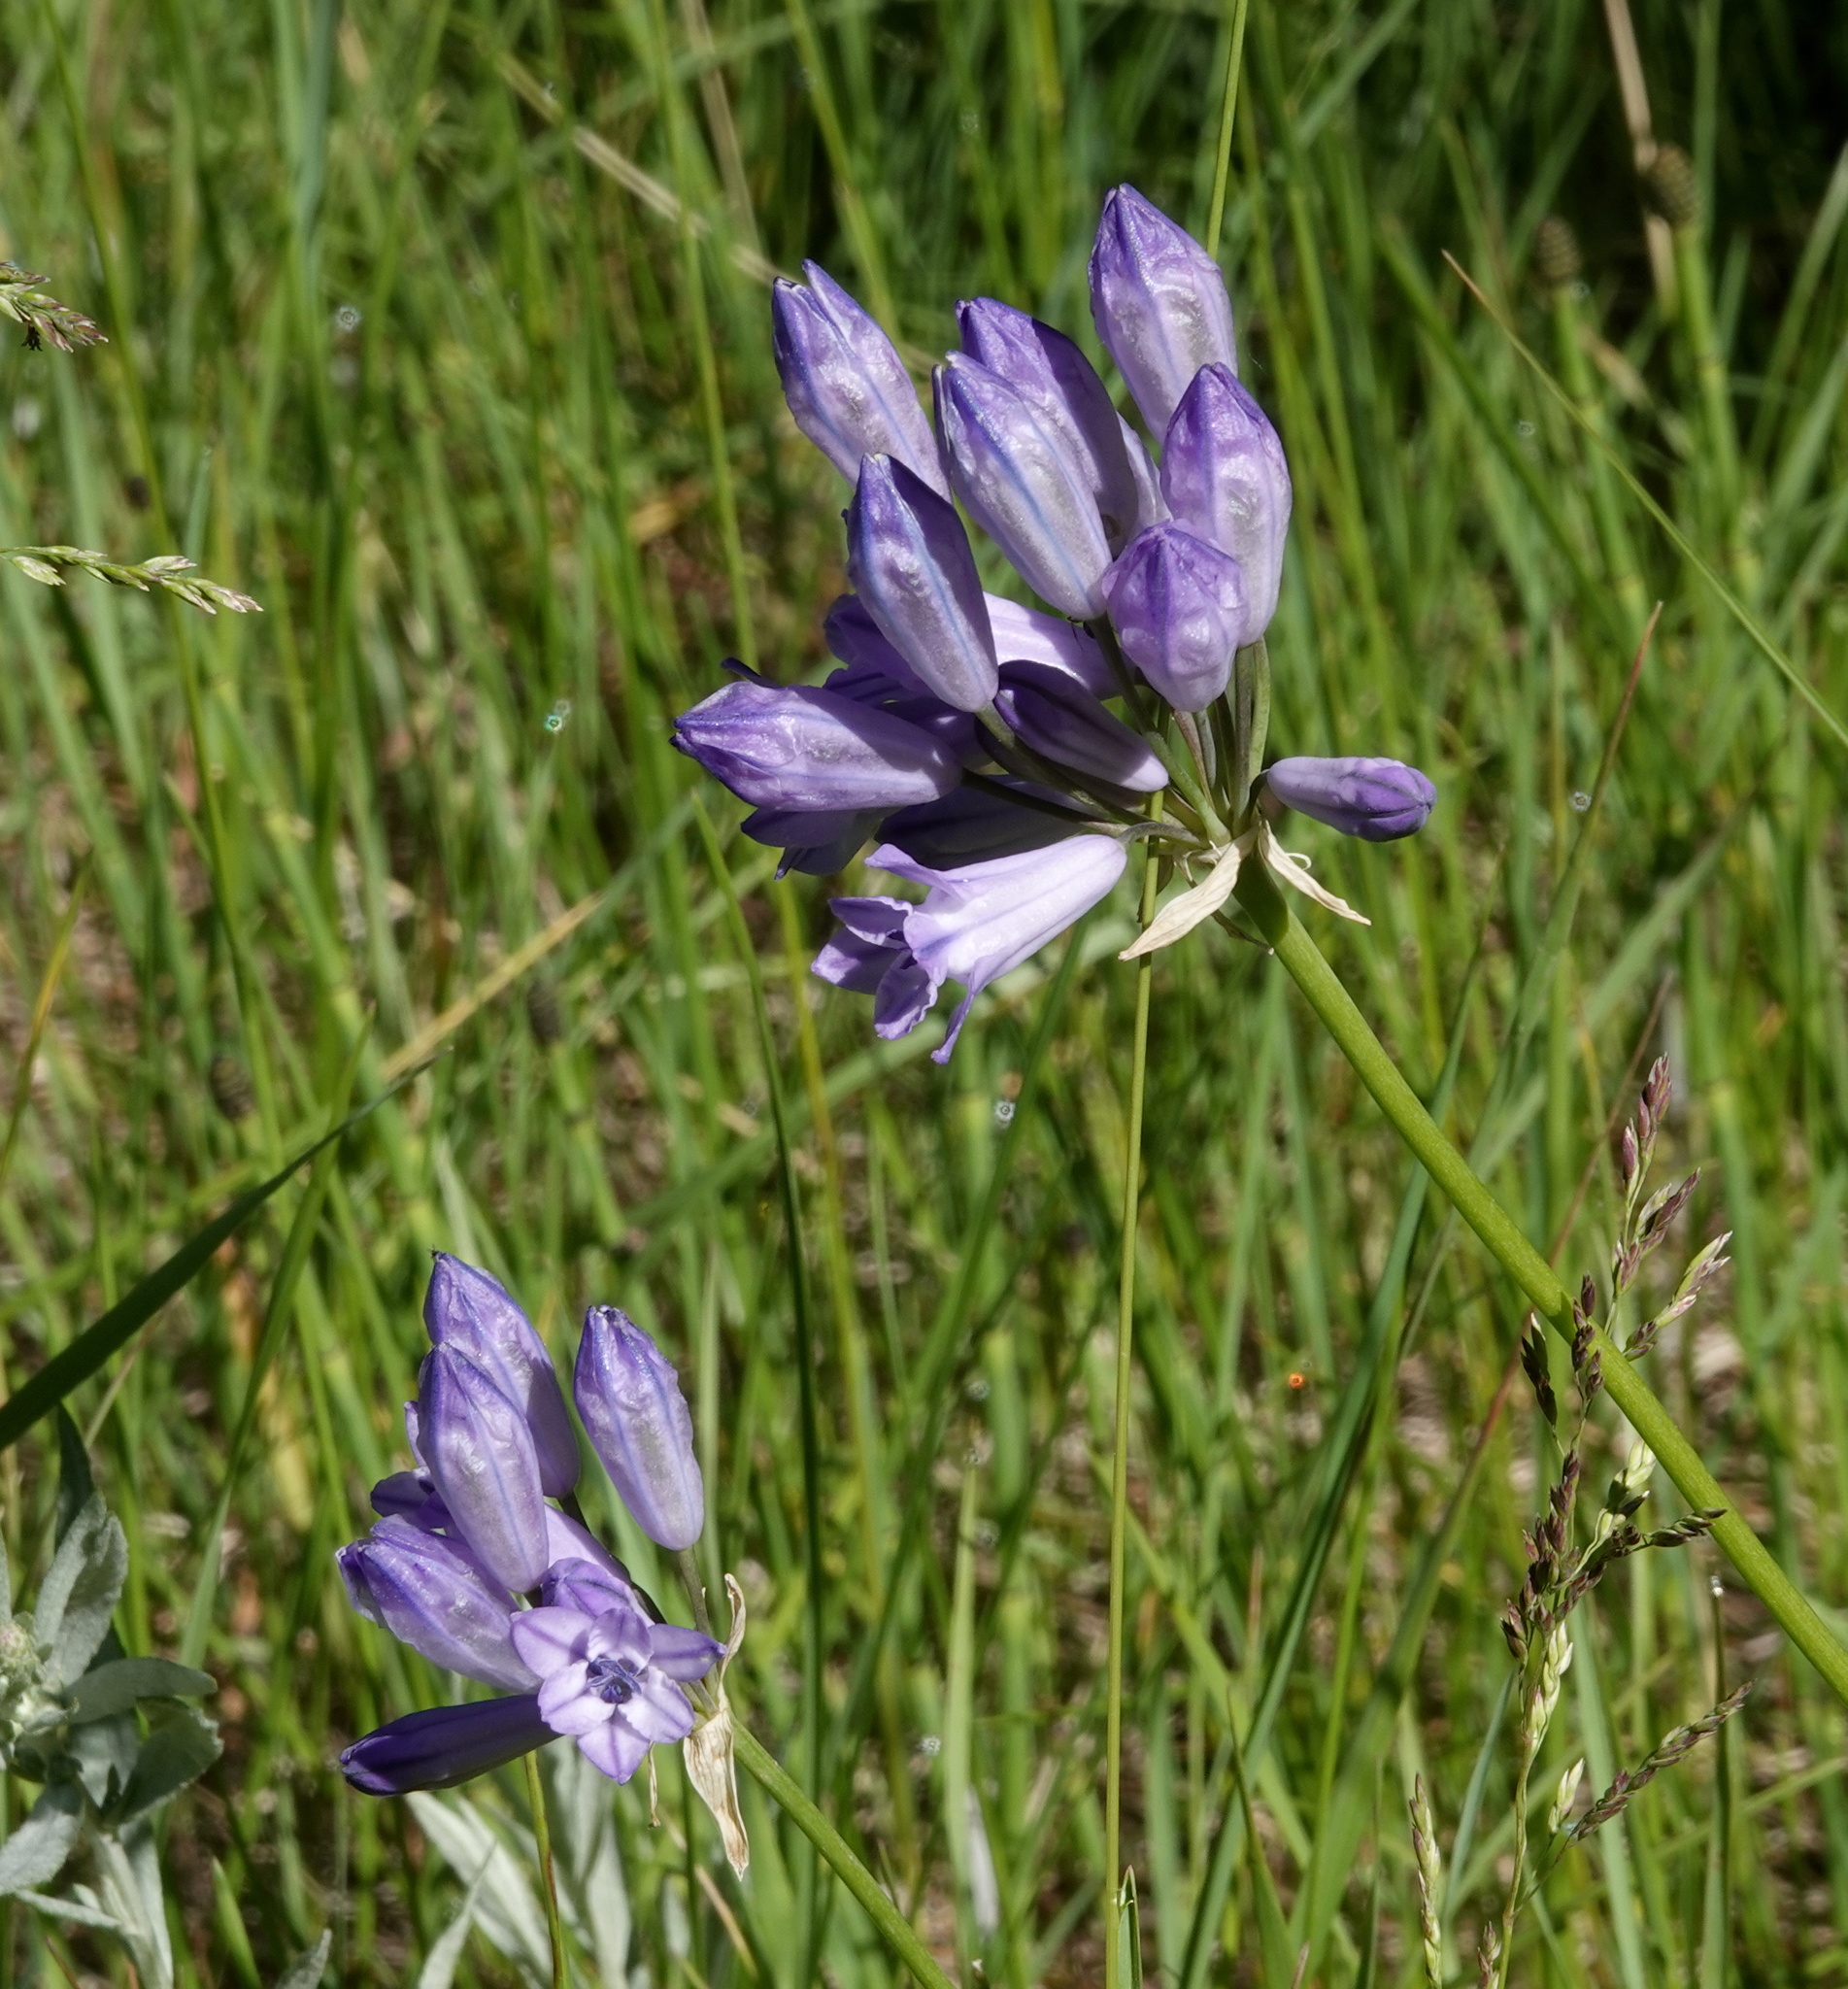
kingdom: Plantae
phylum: Tracheophyta
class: Liliopsida
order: Asparagales
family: Asparagaceae
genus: Triteleia
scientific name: Triteleia grandiflora
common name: Wild hyacinth
